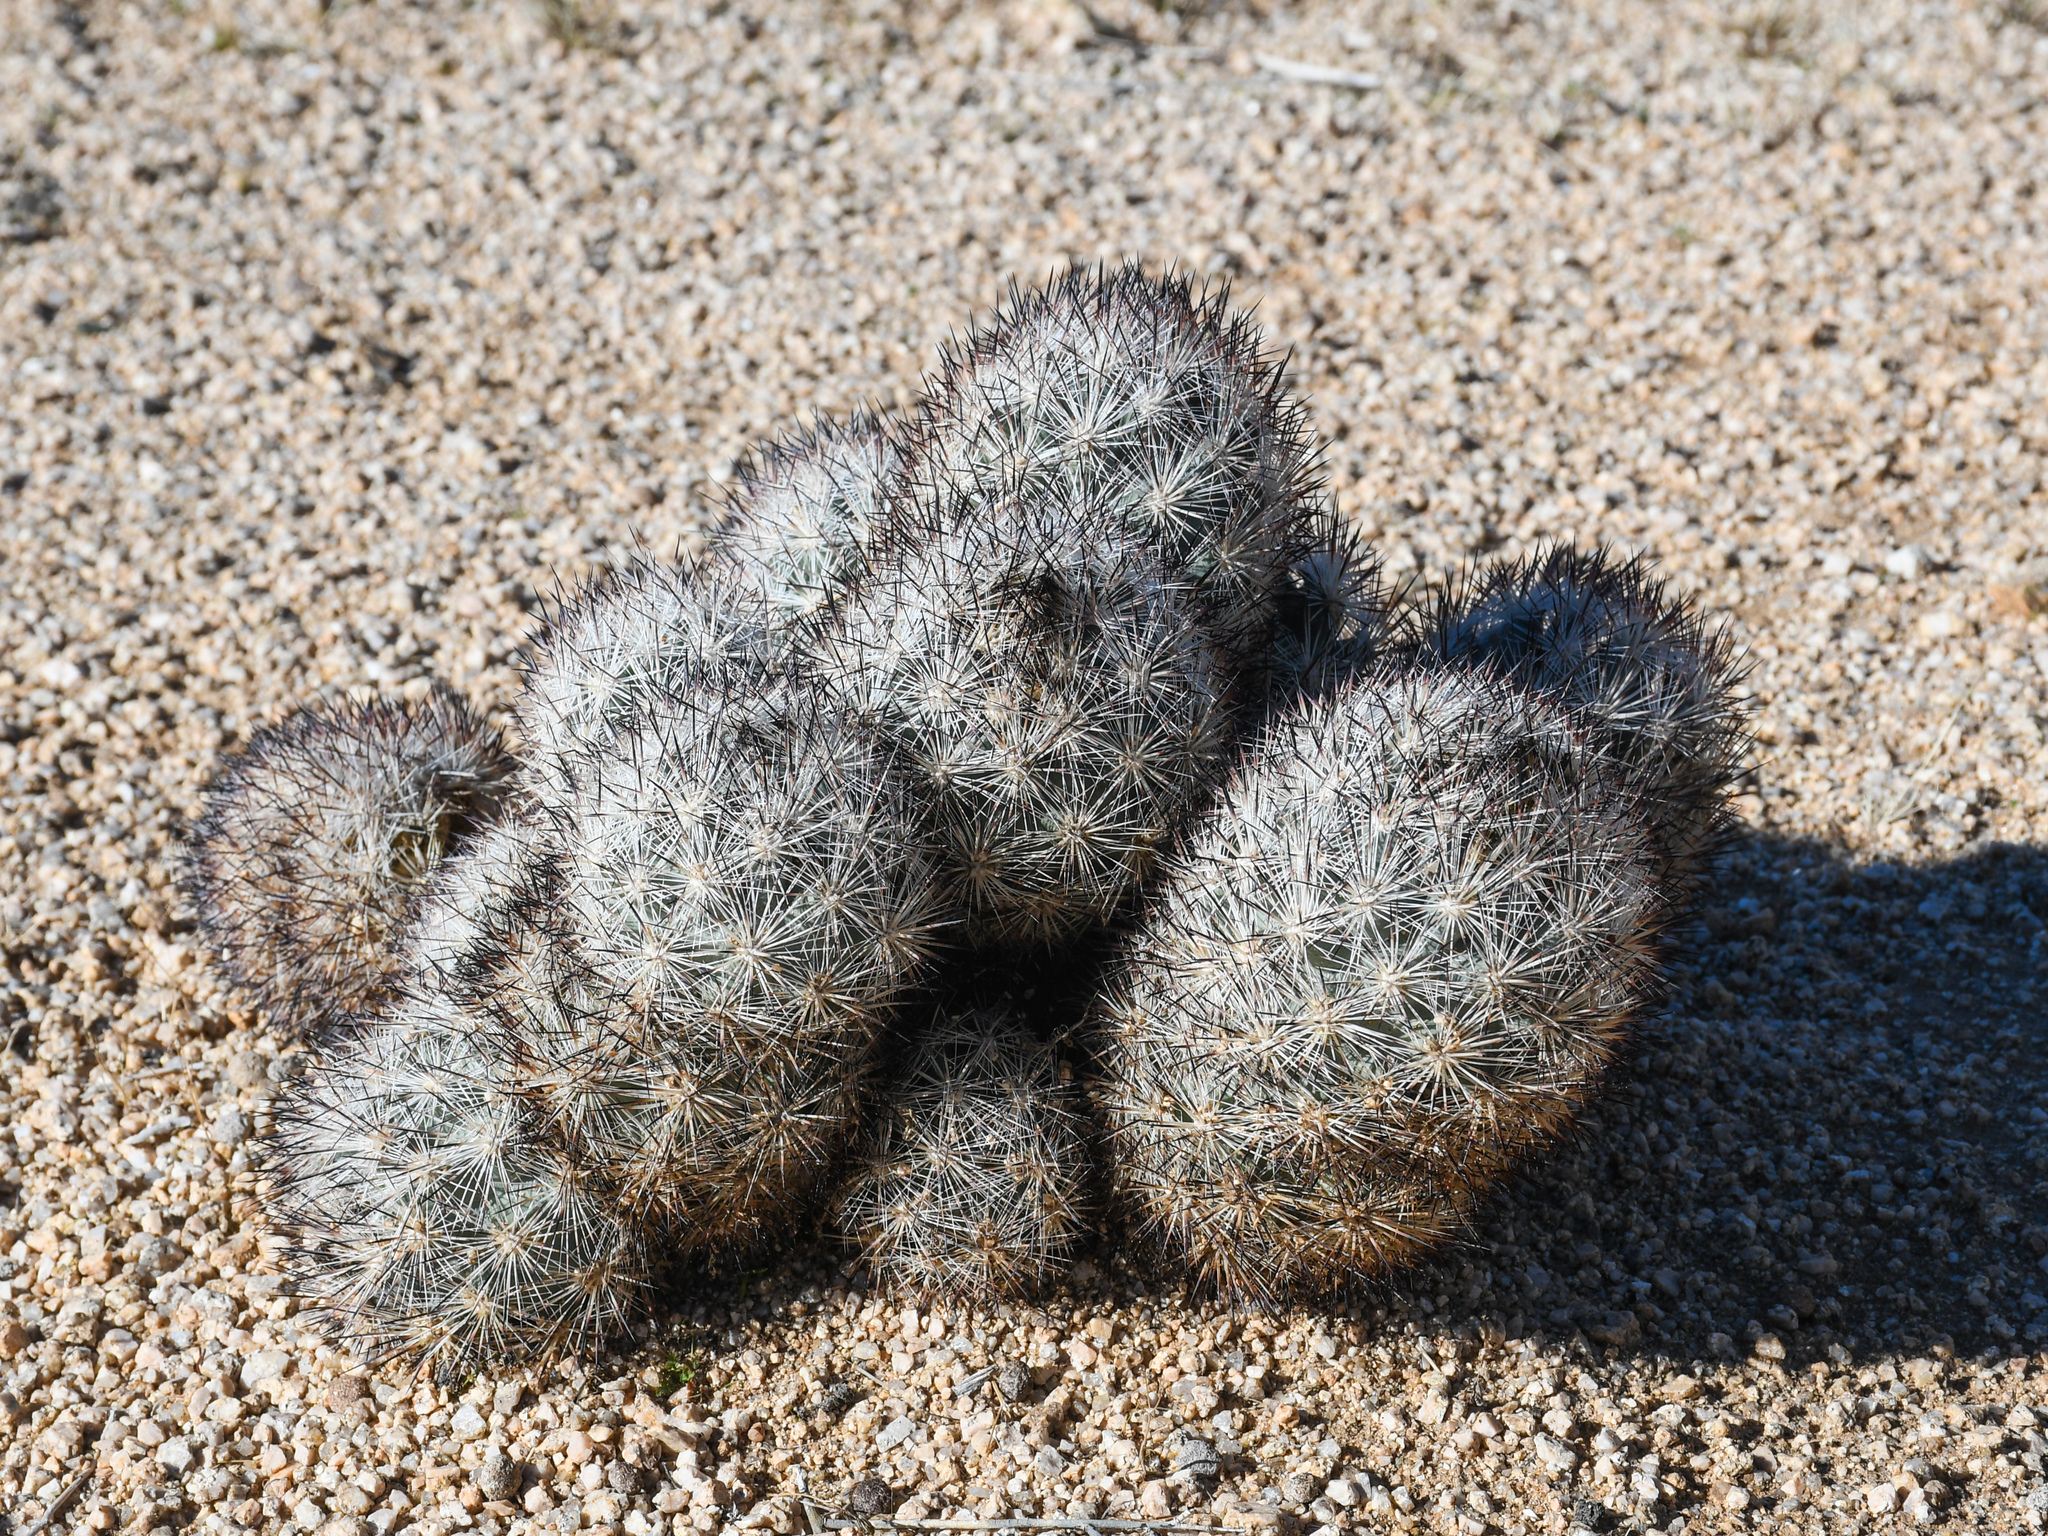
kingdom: Plantae
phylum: Tracheophyta
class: Magnoliopsida
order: Caryophyllales
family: Cactaceae
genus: Pelecyphora
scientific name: Pelecyphora alversonii
